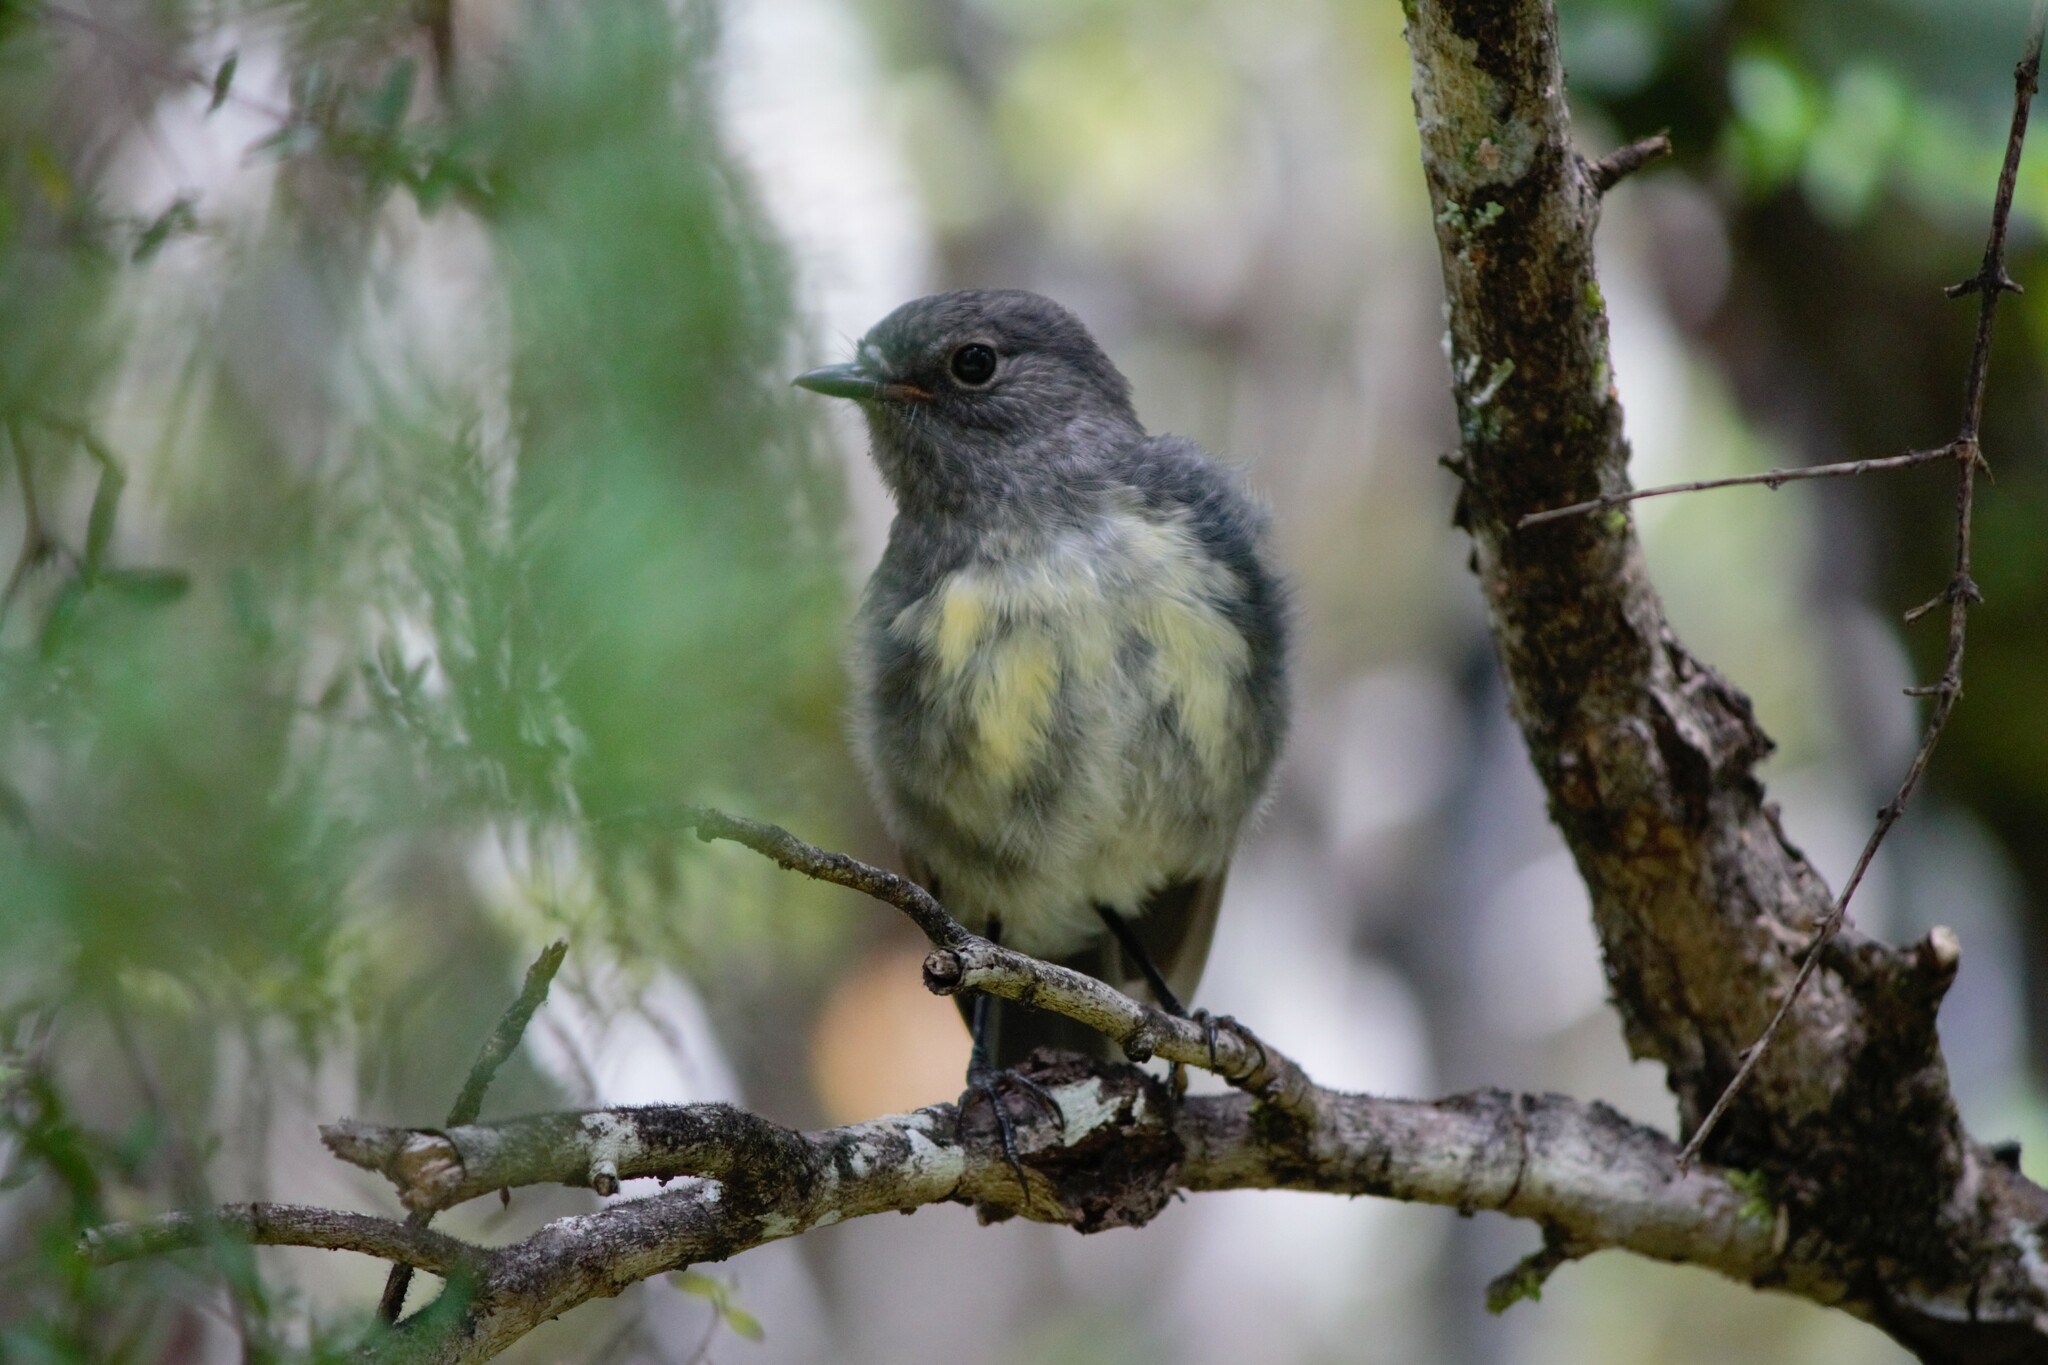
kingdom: Animalia
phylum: Chordata
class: Aves
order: Passeriformes
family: Petroicidae
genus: Petroica
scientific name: Petroica australis
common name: New zealand robin
